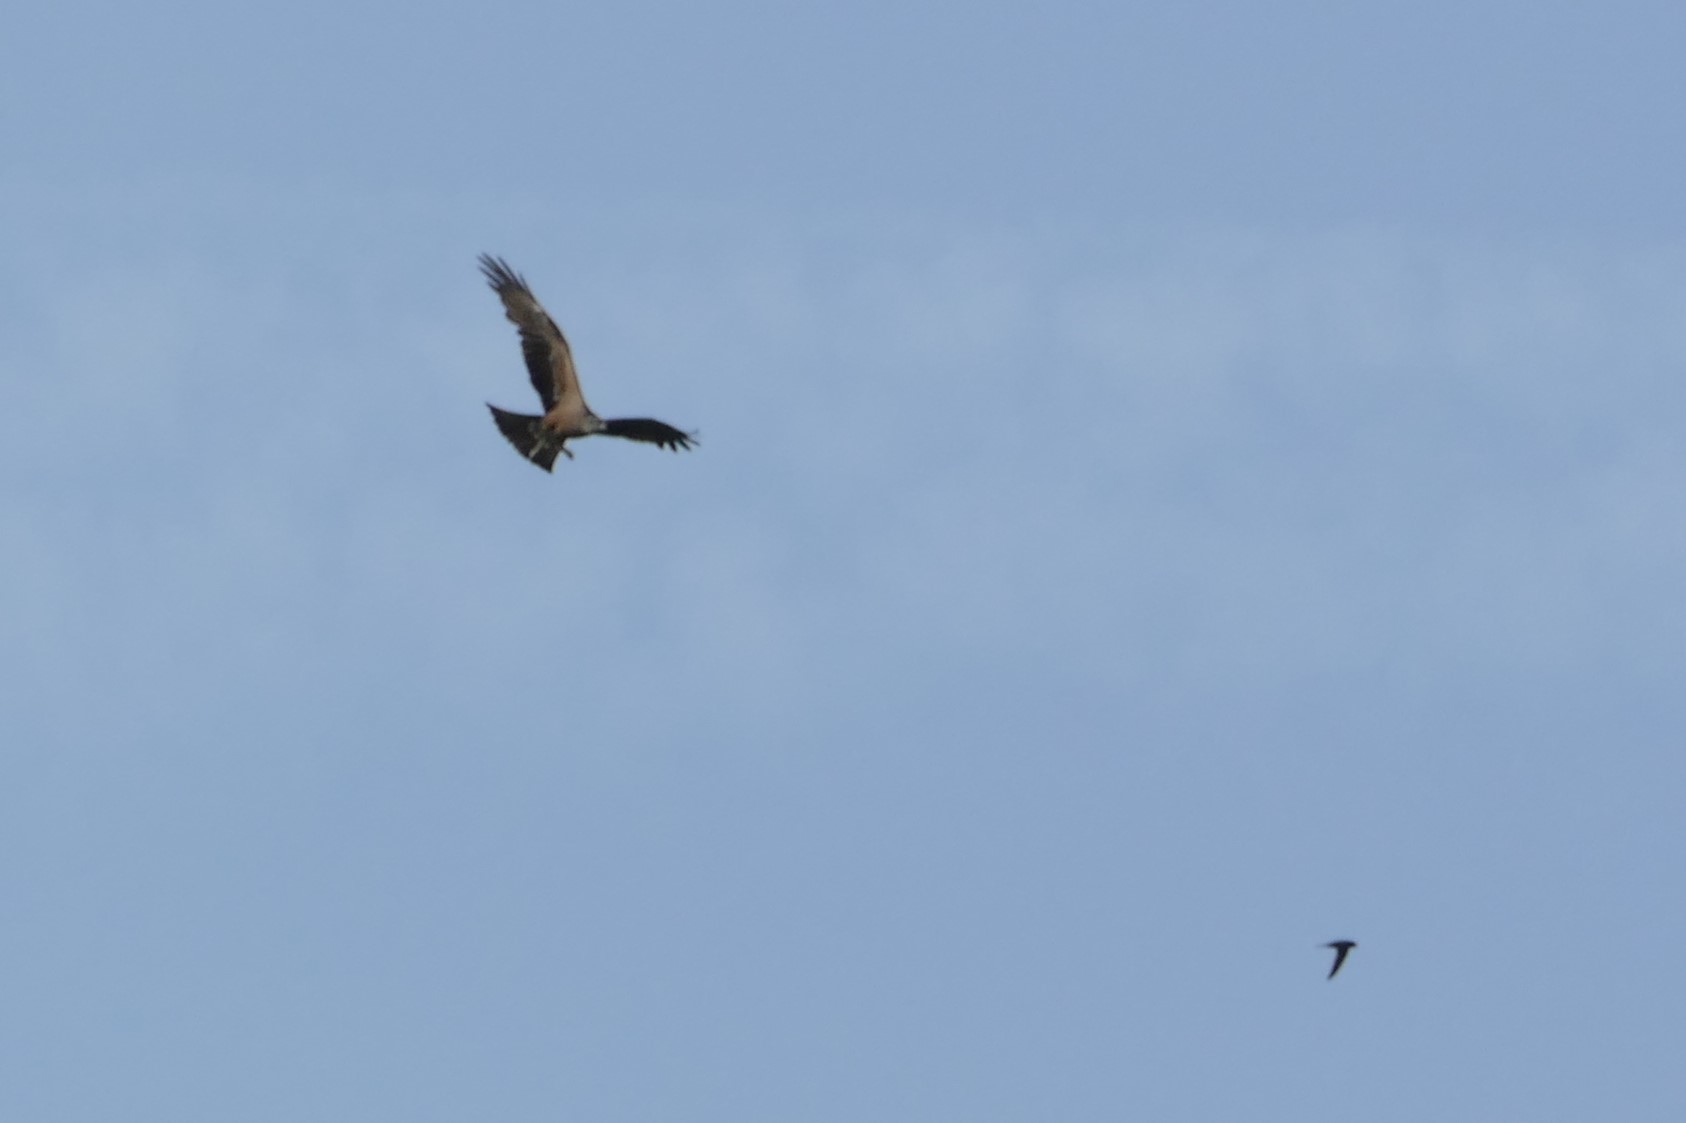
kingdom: Animalia
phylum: Chordata
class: Aves
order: Accipitriformes
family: Accipitridae
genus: Milvus
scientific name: Milvus migrans
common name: Black kite
